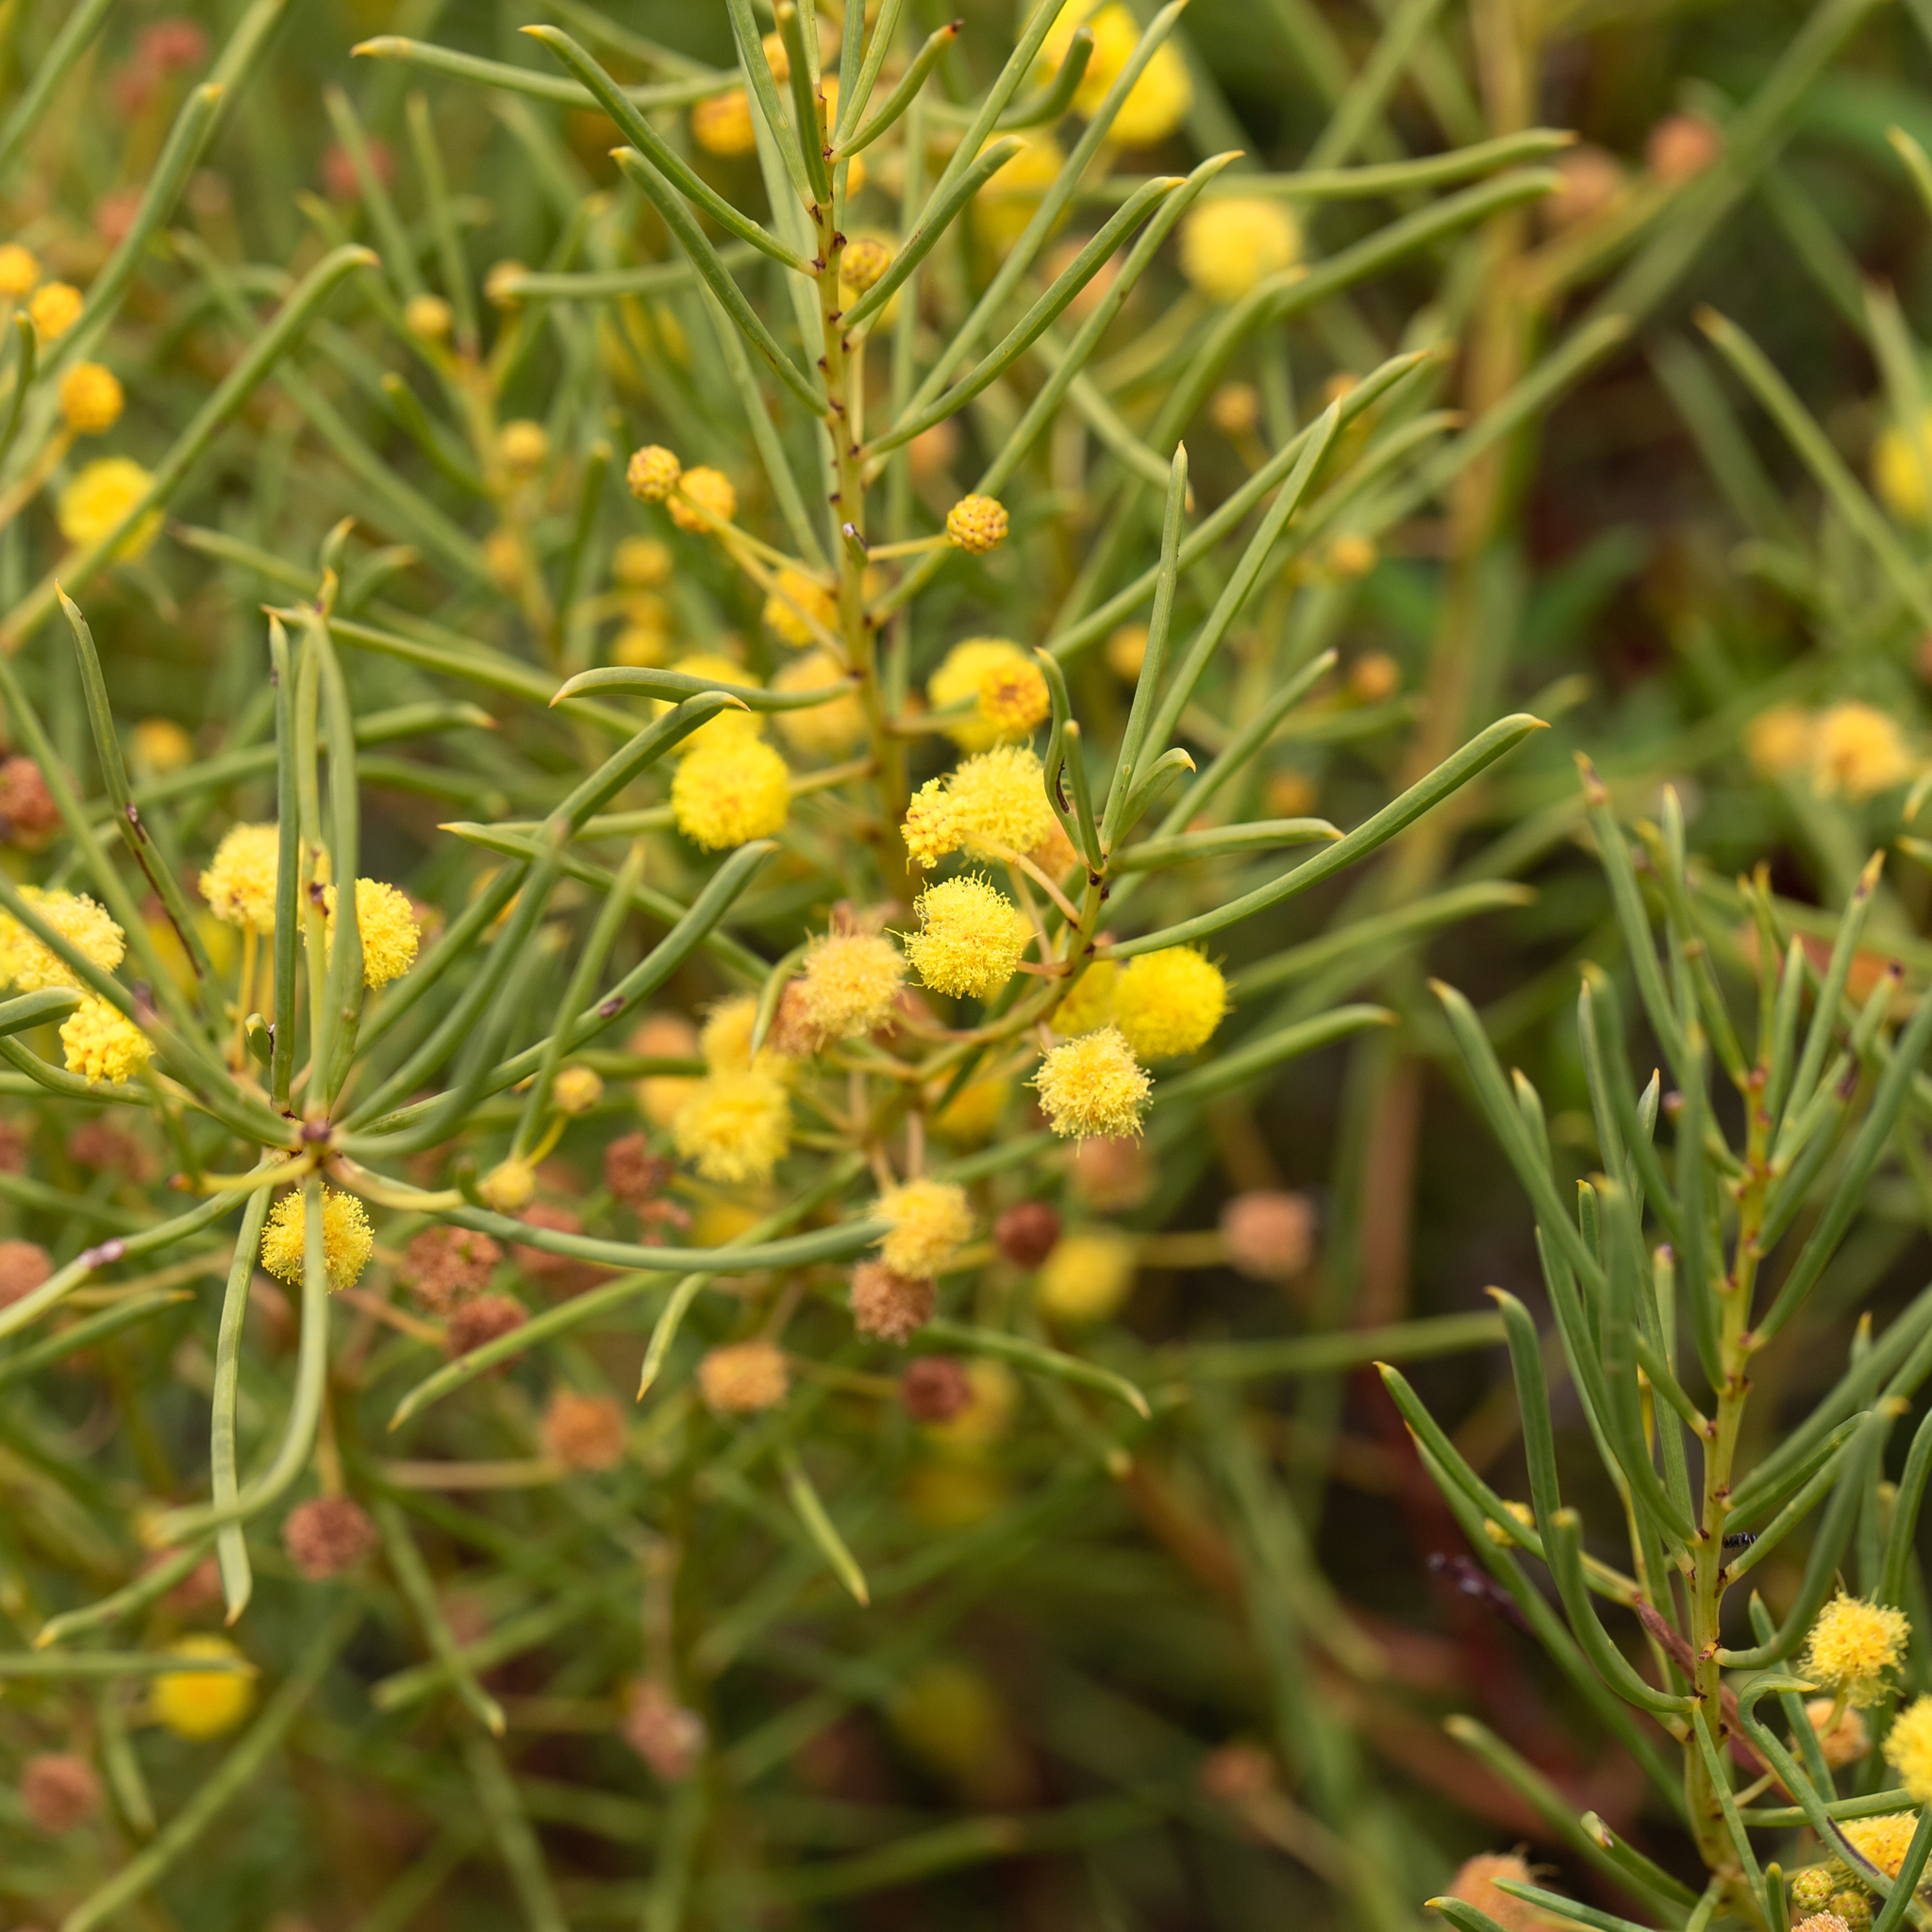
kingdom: Plantae
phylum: Tracheophyta
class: Magnoliopsida
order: Fabales
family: Fabaceae
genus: Acacia
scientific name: Acacia nematophylla
